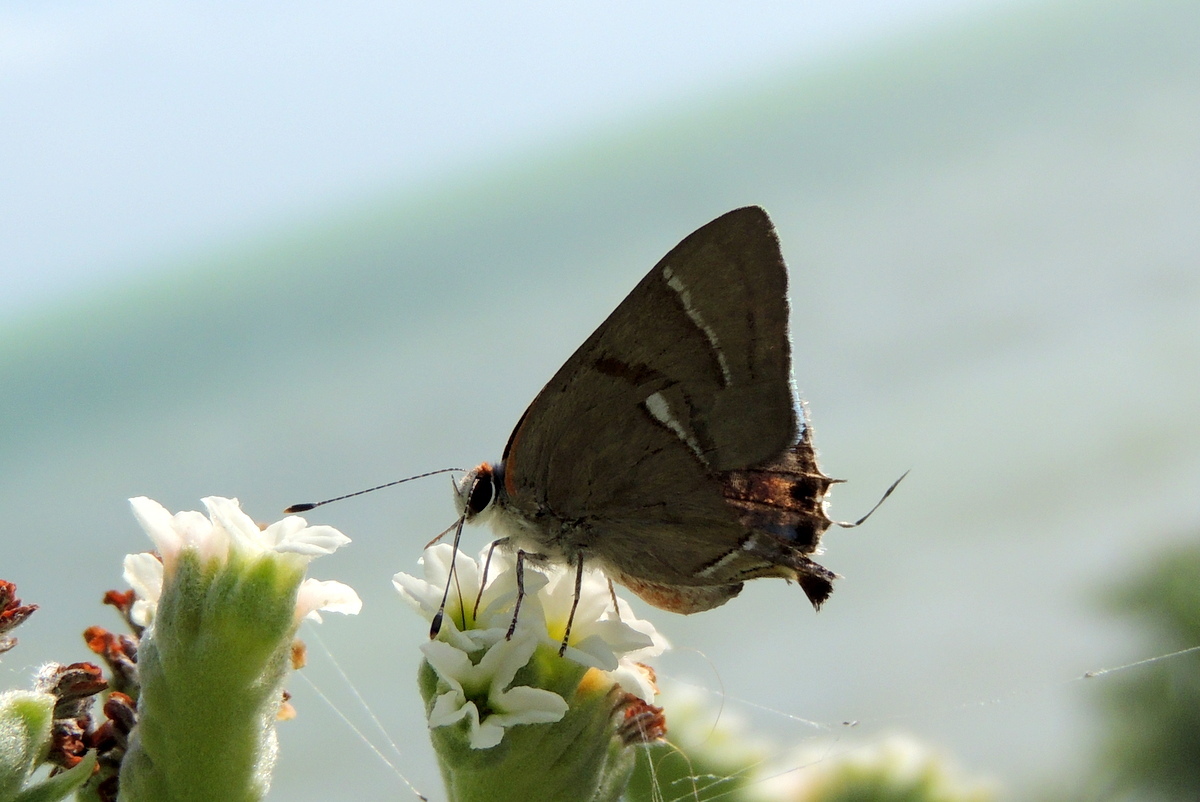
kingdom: Animalia
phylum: Arthropoda
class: Insecta
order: Lepidoptera
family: Lycaenidae
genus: Thecla
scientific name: Thecla martialis
